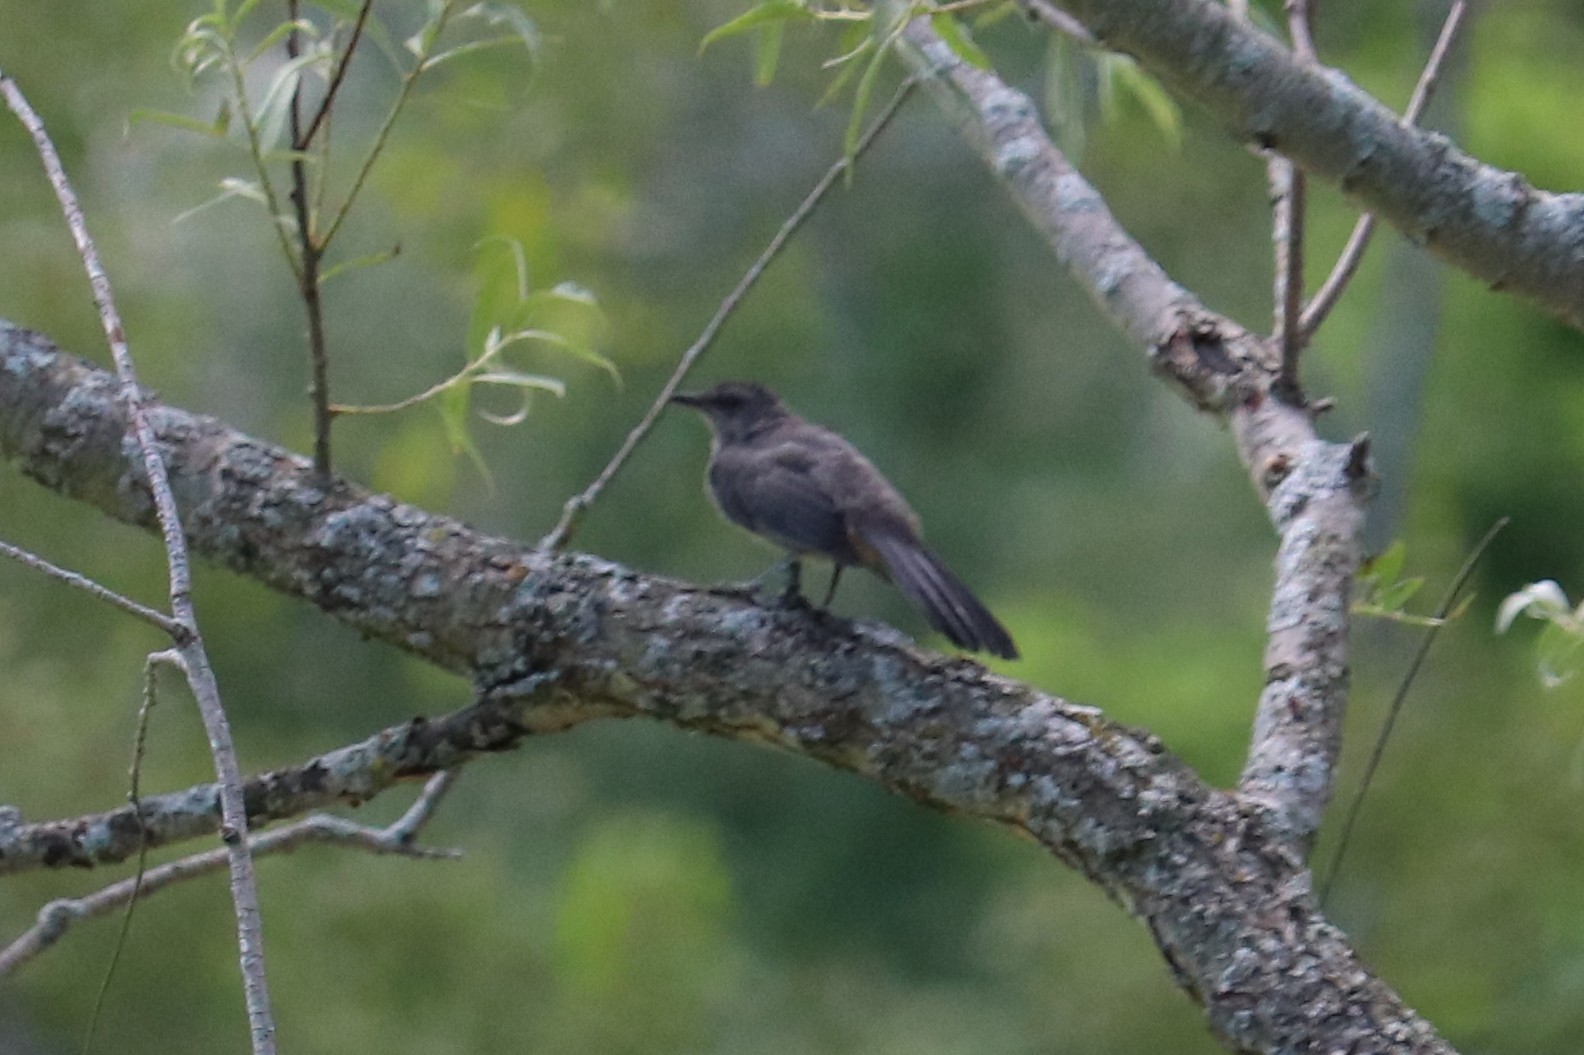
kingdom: Animalia
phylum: Chordata
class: Aves
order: Passeriformes
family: Mimidae
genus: Dumetella
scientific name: Dumetella carolinensis
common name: Gray catbird
